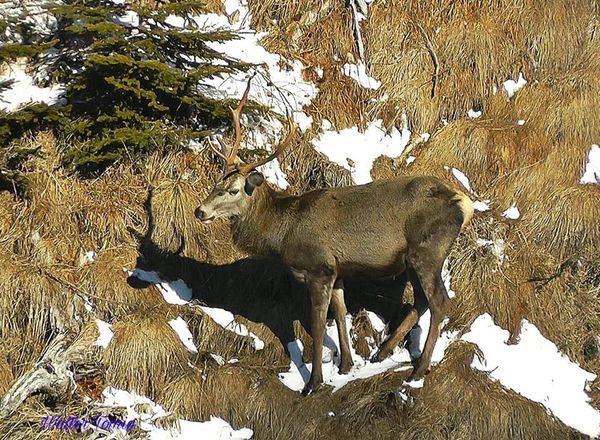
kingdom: Animalia
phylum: Chordata
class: Mammalia
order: Artiodactyla
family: Cervidae
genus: Cervus
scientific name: Cervus elaphus
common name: Red deer
